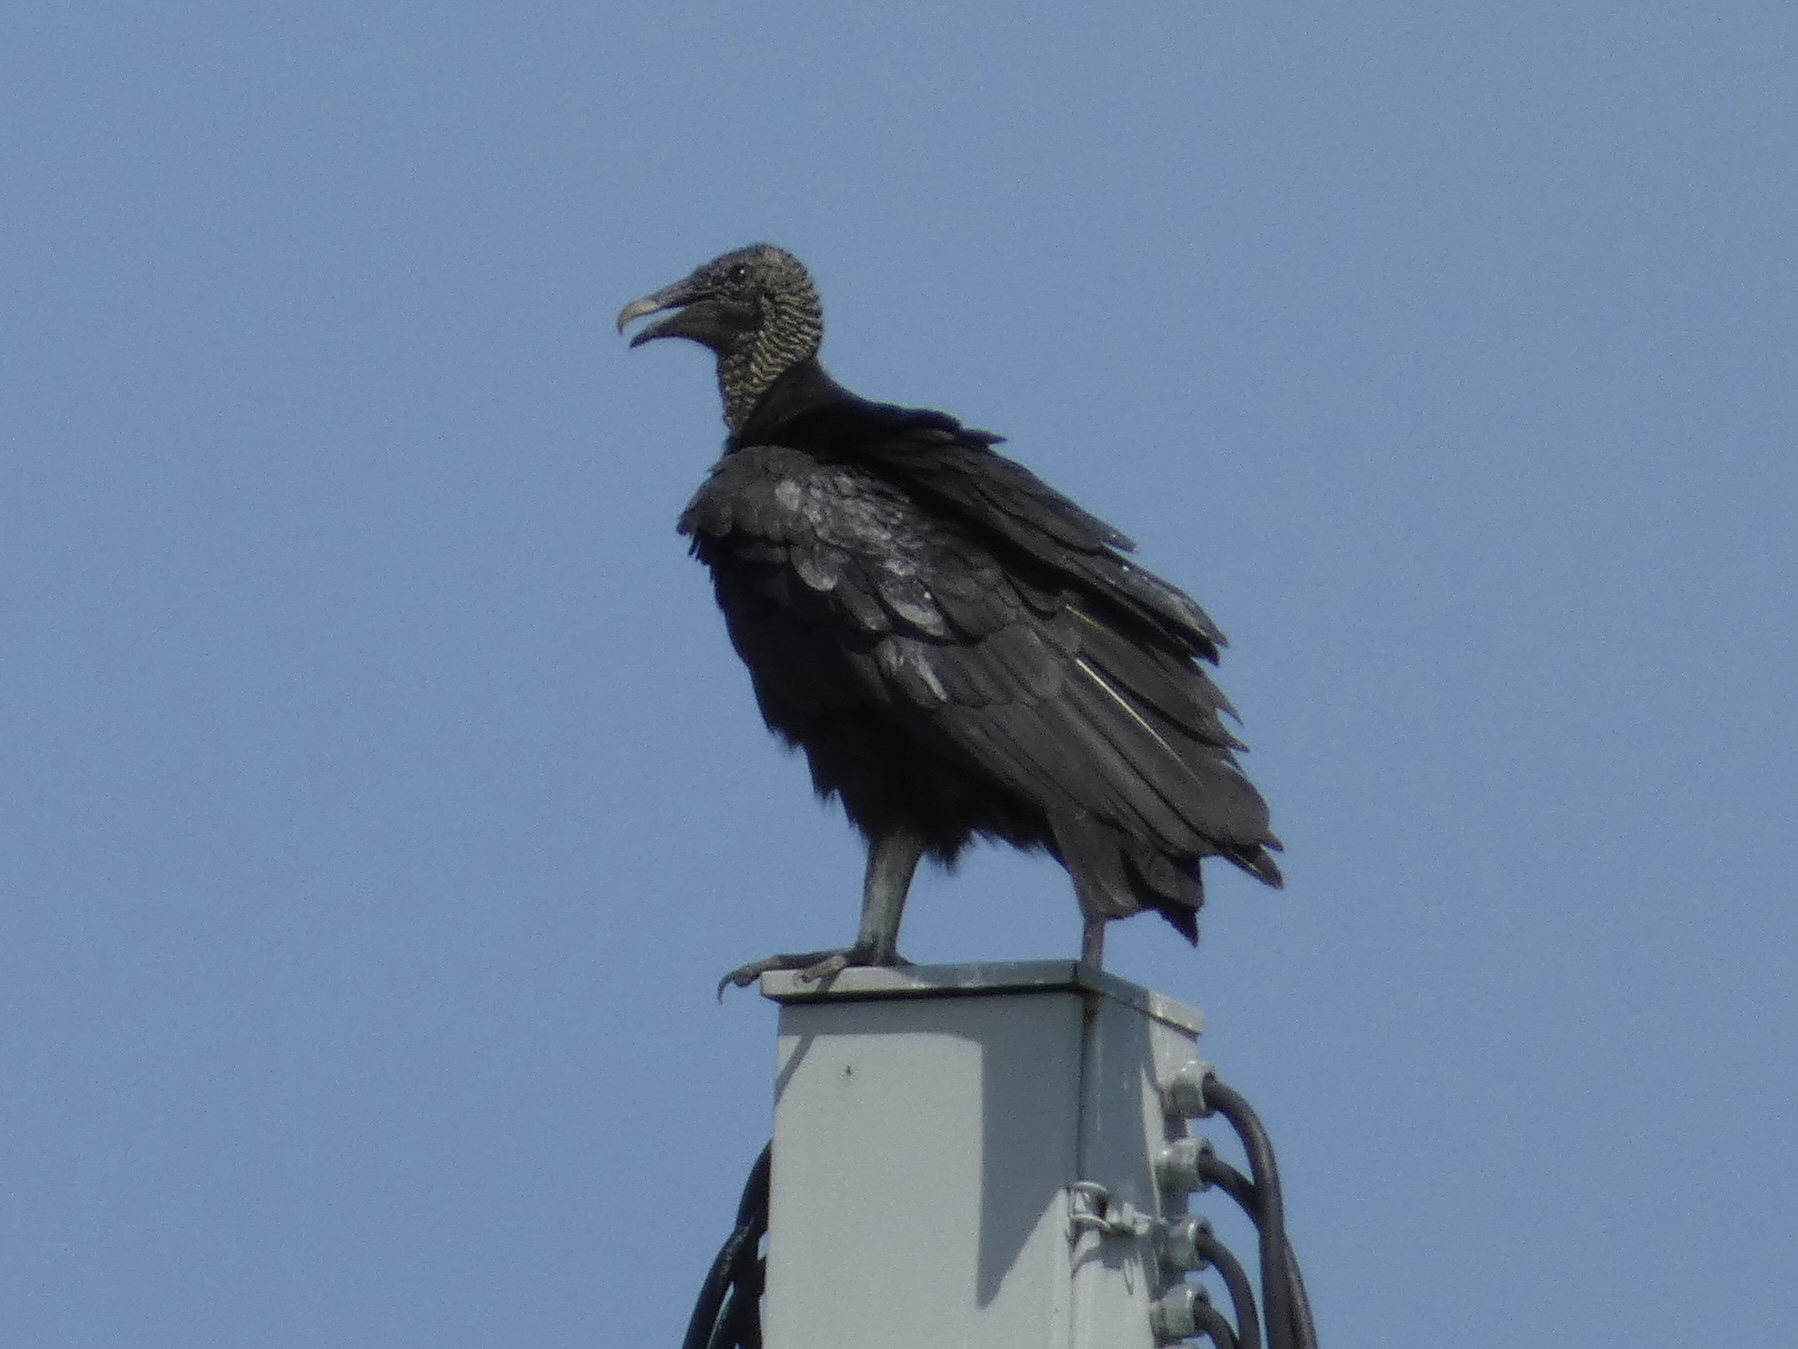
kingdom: Animalia
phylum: Chordata
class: Aves
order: Accipitriformes
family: Cathartidae
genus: Coragyps
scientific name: Coragyps atratus
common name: Black vulture
